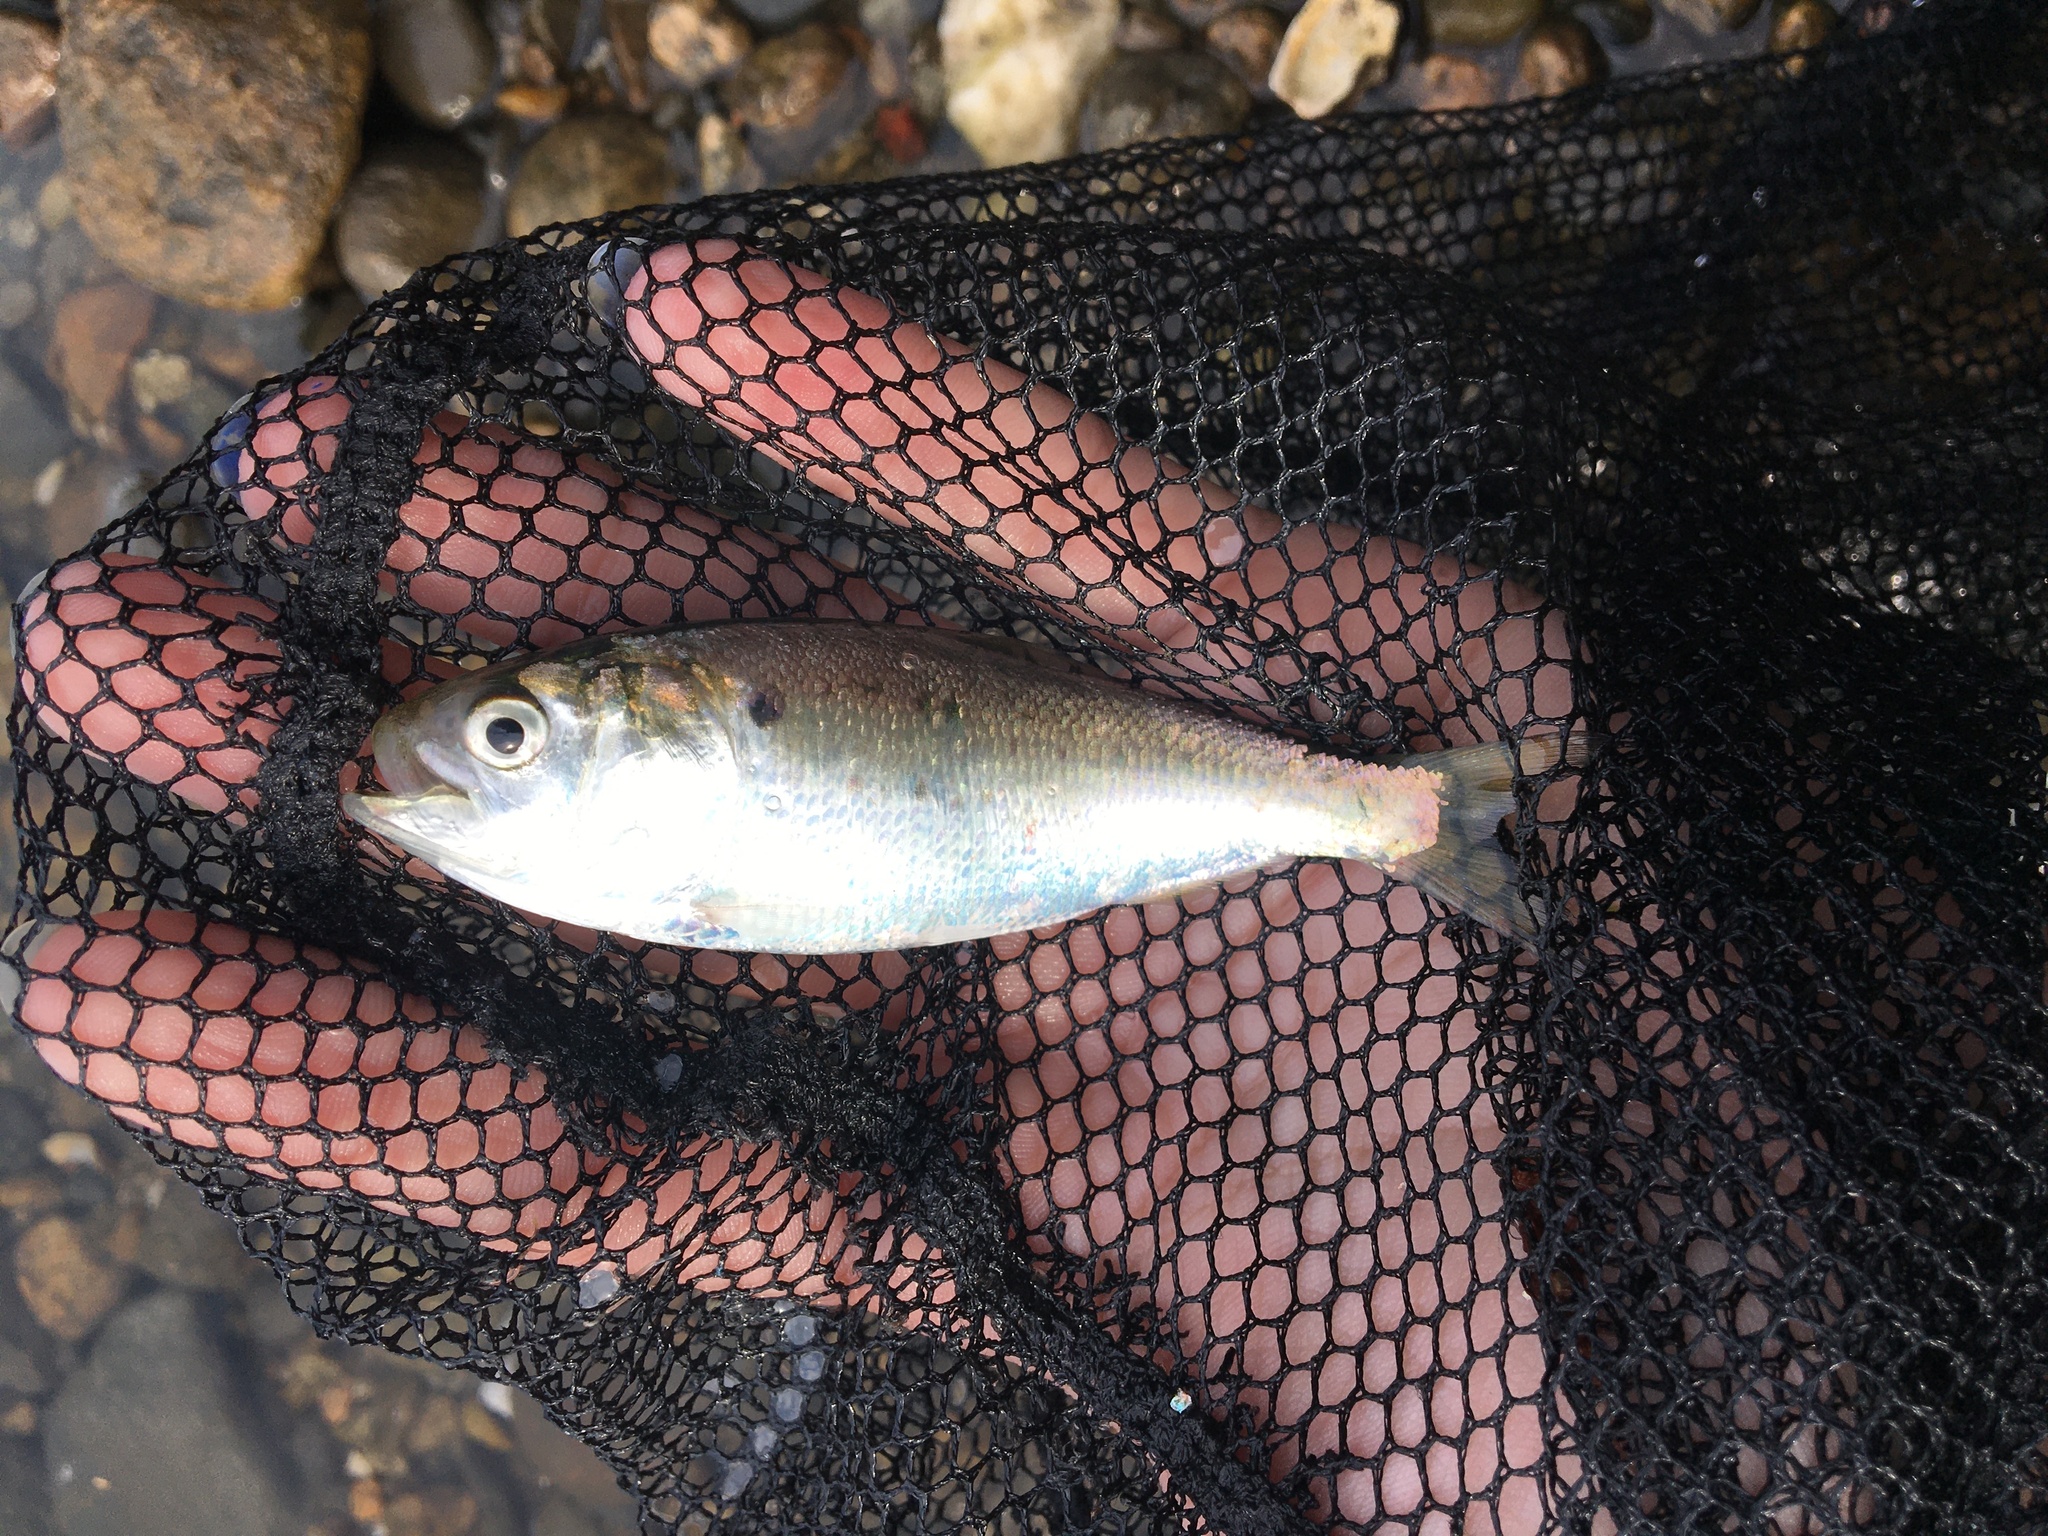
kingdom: Animalia
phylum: Chordata
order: Clupeiformes
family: Clupeidae
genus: Brevoortia
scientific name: Brevoortia tyrannus
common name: Atlantic menhaden
